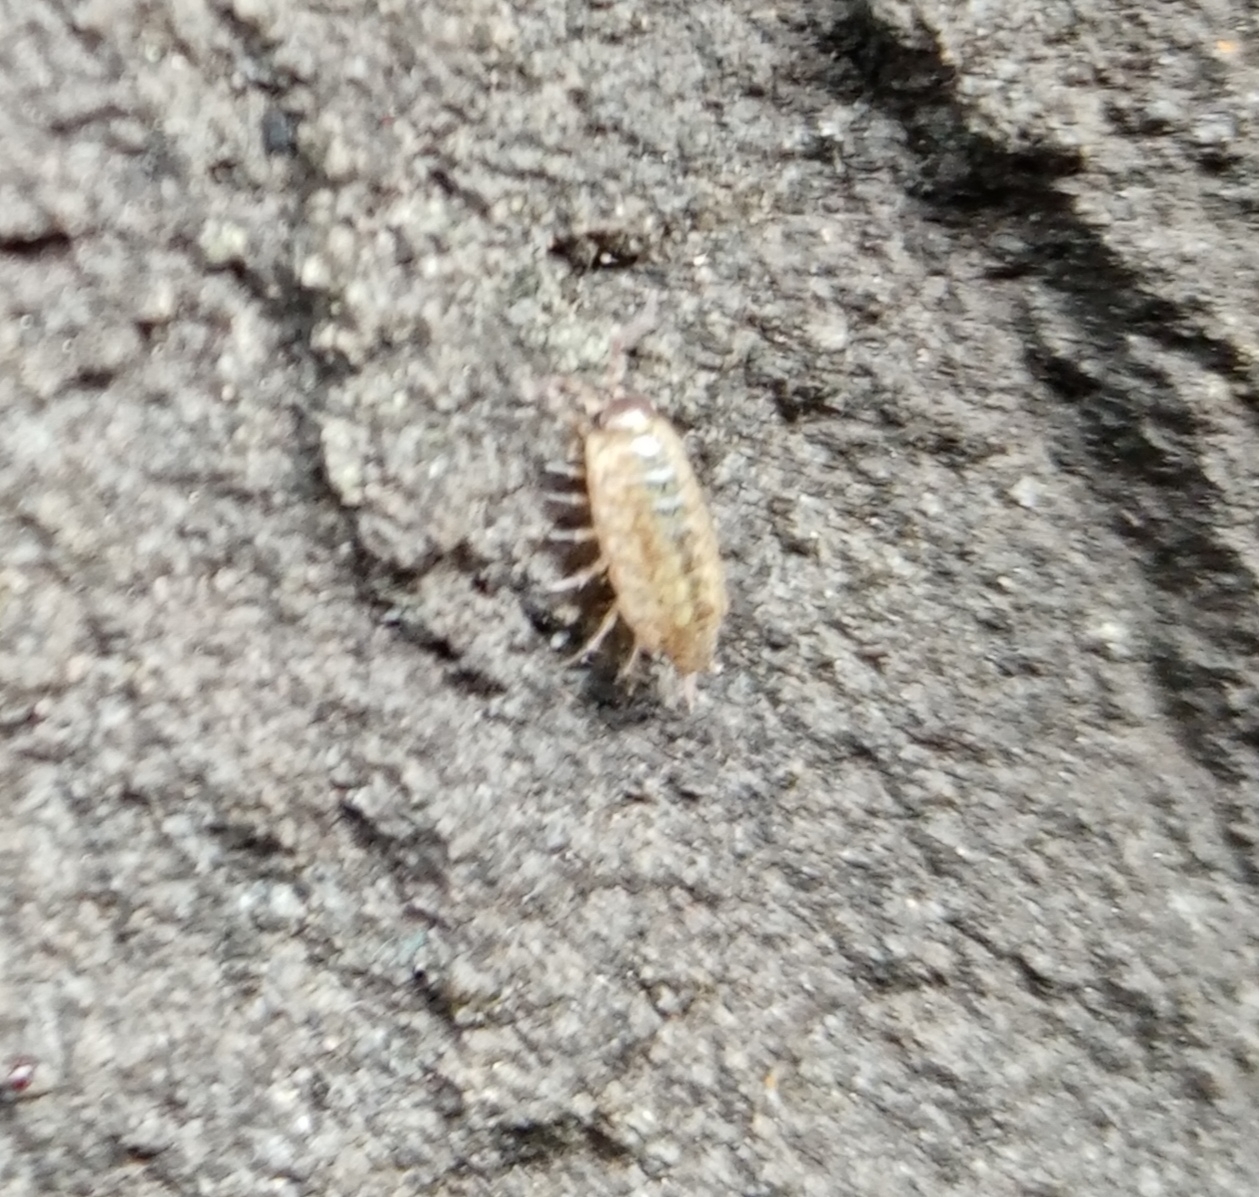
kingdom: Animalia
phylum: Arthropoda
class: Malacostraca
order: Isopoda
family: Philosciidae
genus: Philoscia
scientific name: Philoscia muscorum
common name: Common striped woodlouse
